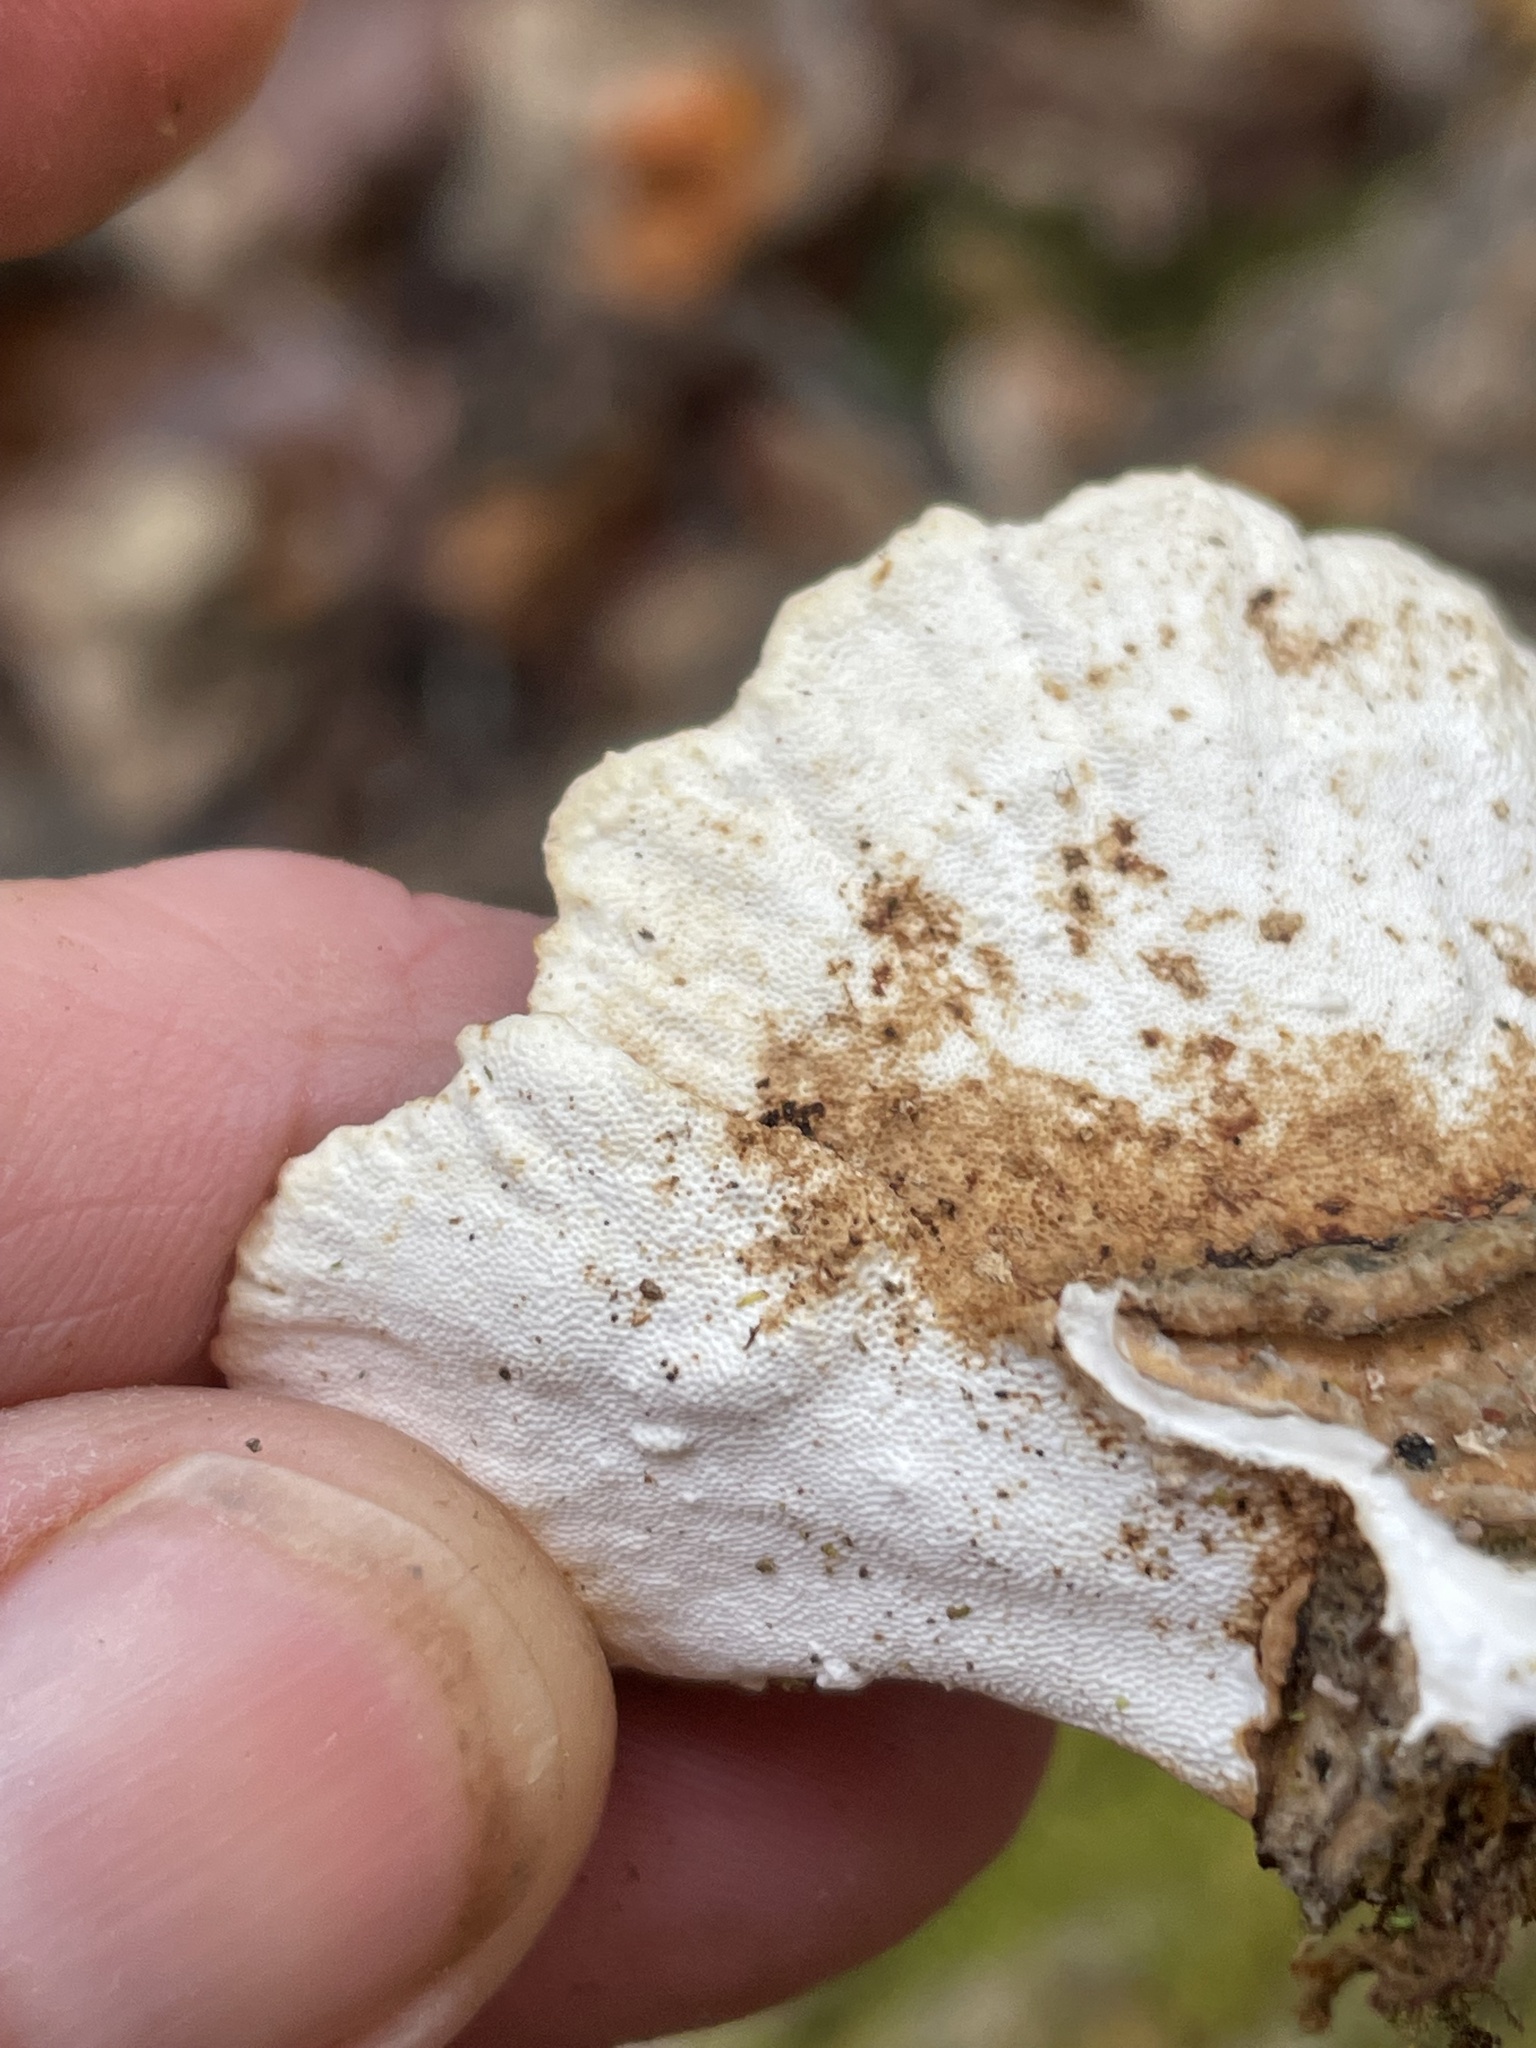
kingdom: Fungi
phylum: Basidiomycota
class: Agaricomycetes
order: Polyporales
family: Polyporaceae
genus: Trametes
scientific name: Trametes versicolor
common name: Turkeytail
